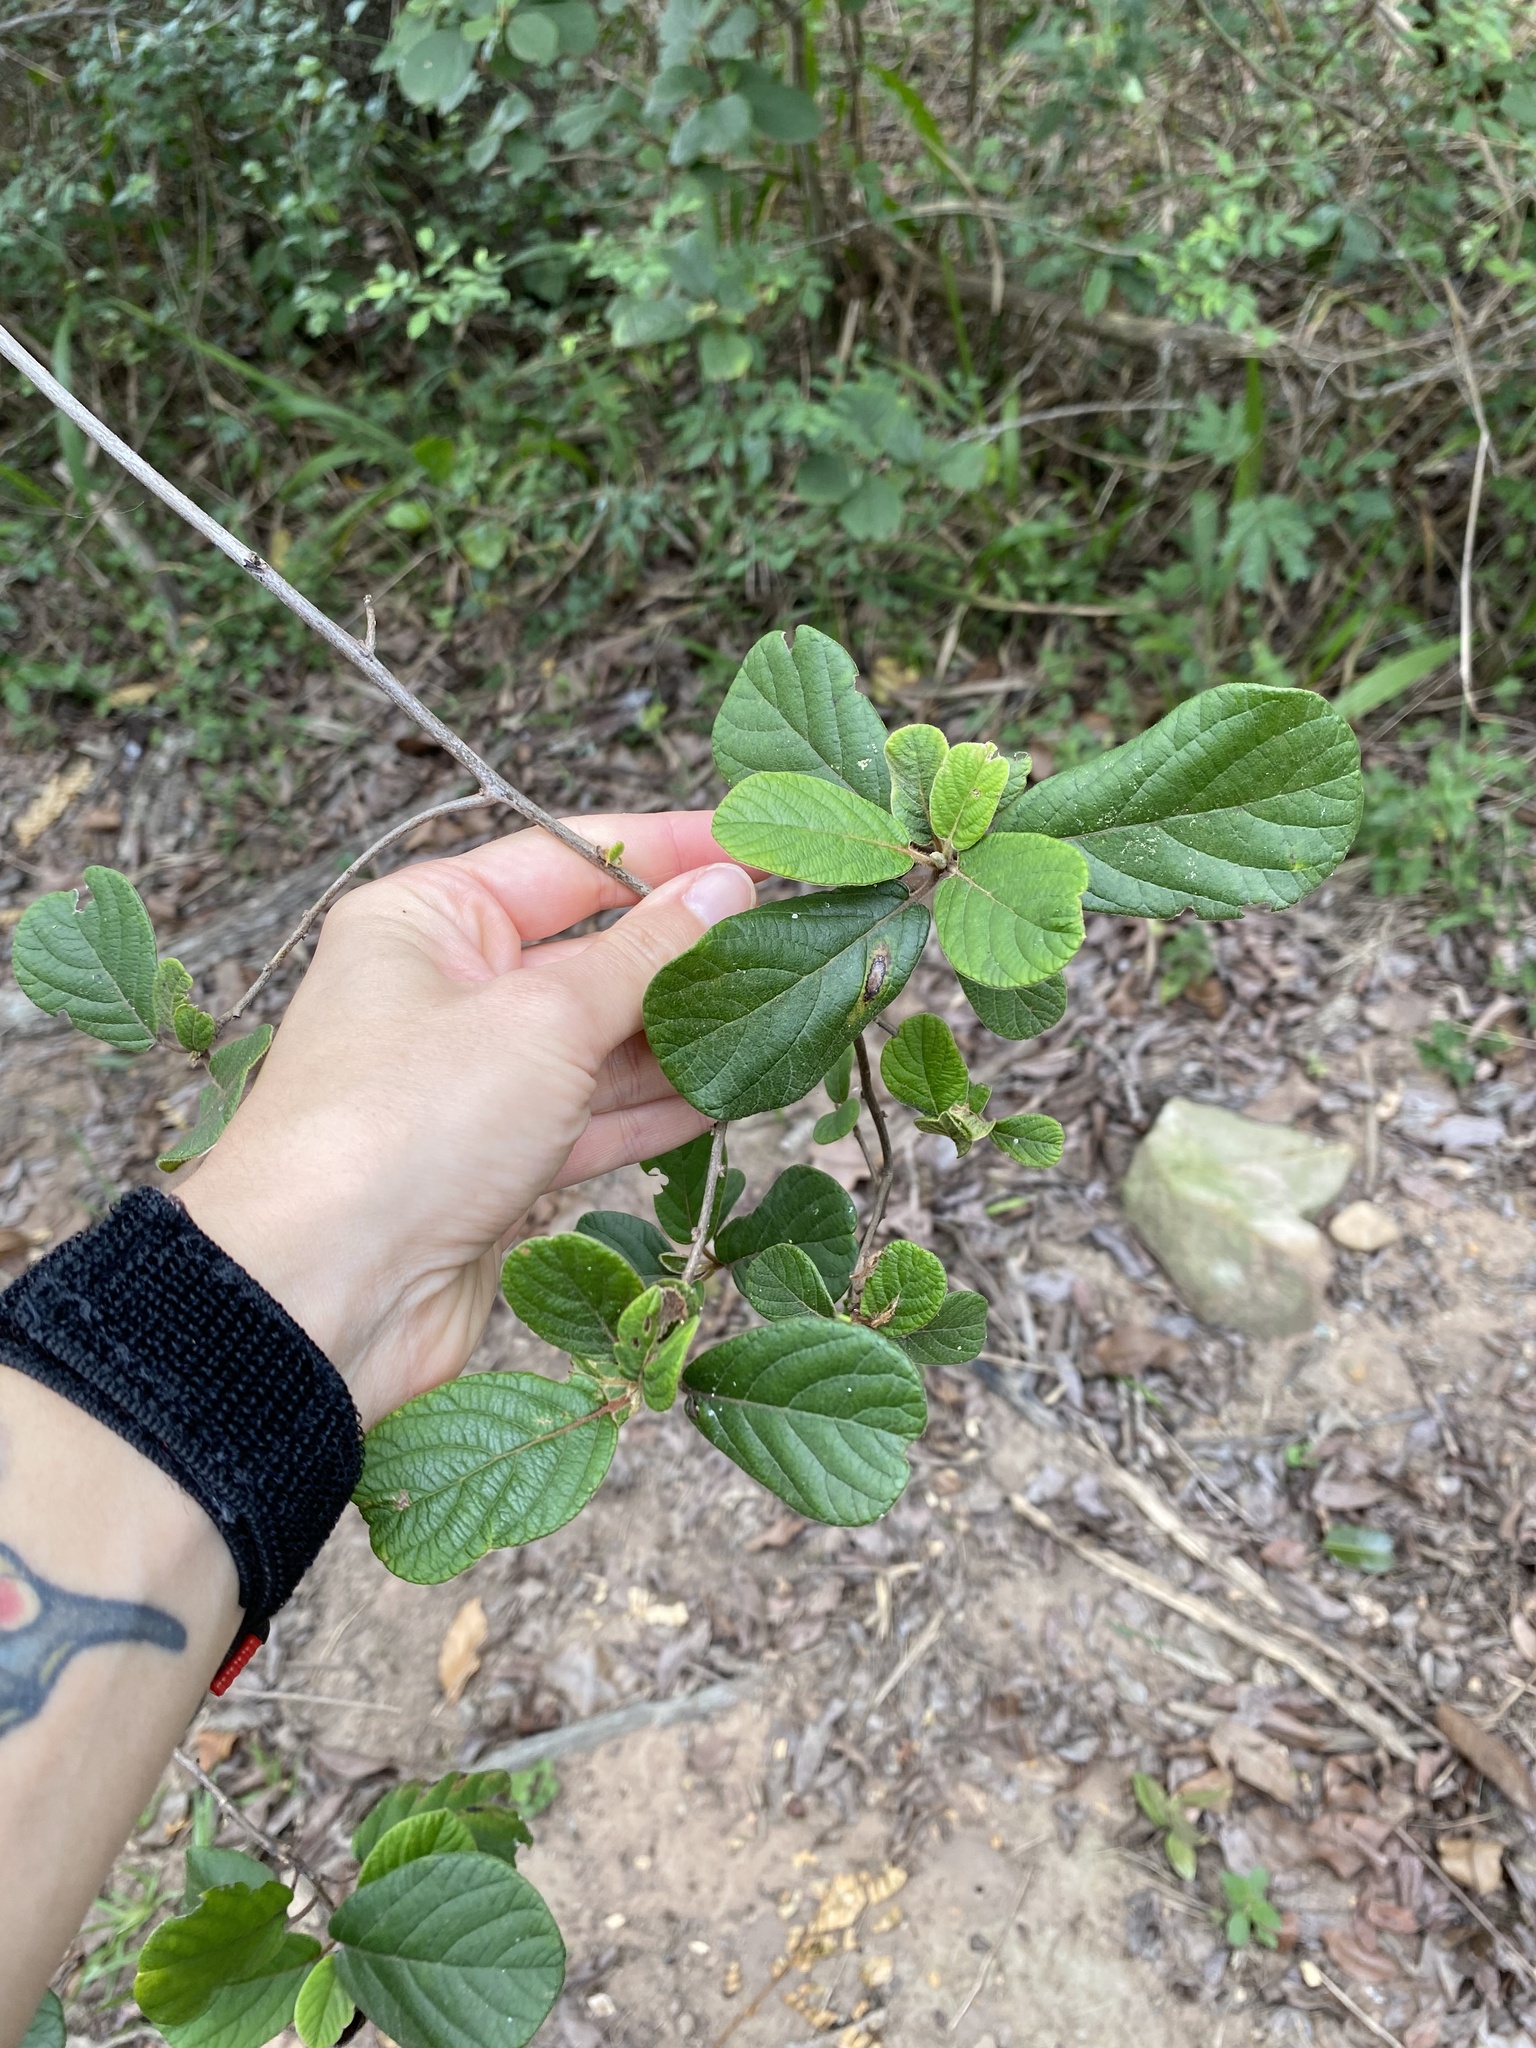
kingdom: Plantae
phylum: Tracheophyta
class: Magnoliopsida
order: Ericales
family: Ebenaceae
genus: Diospyros
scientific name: Diospyros villosa
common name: Hairy star-apple
